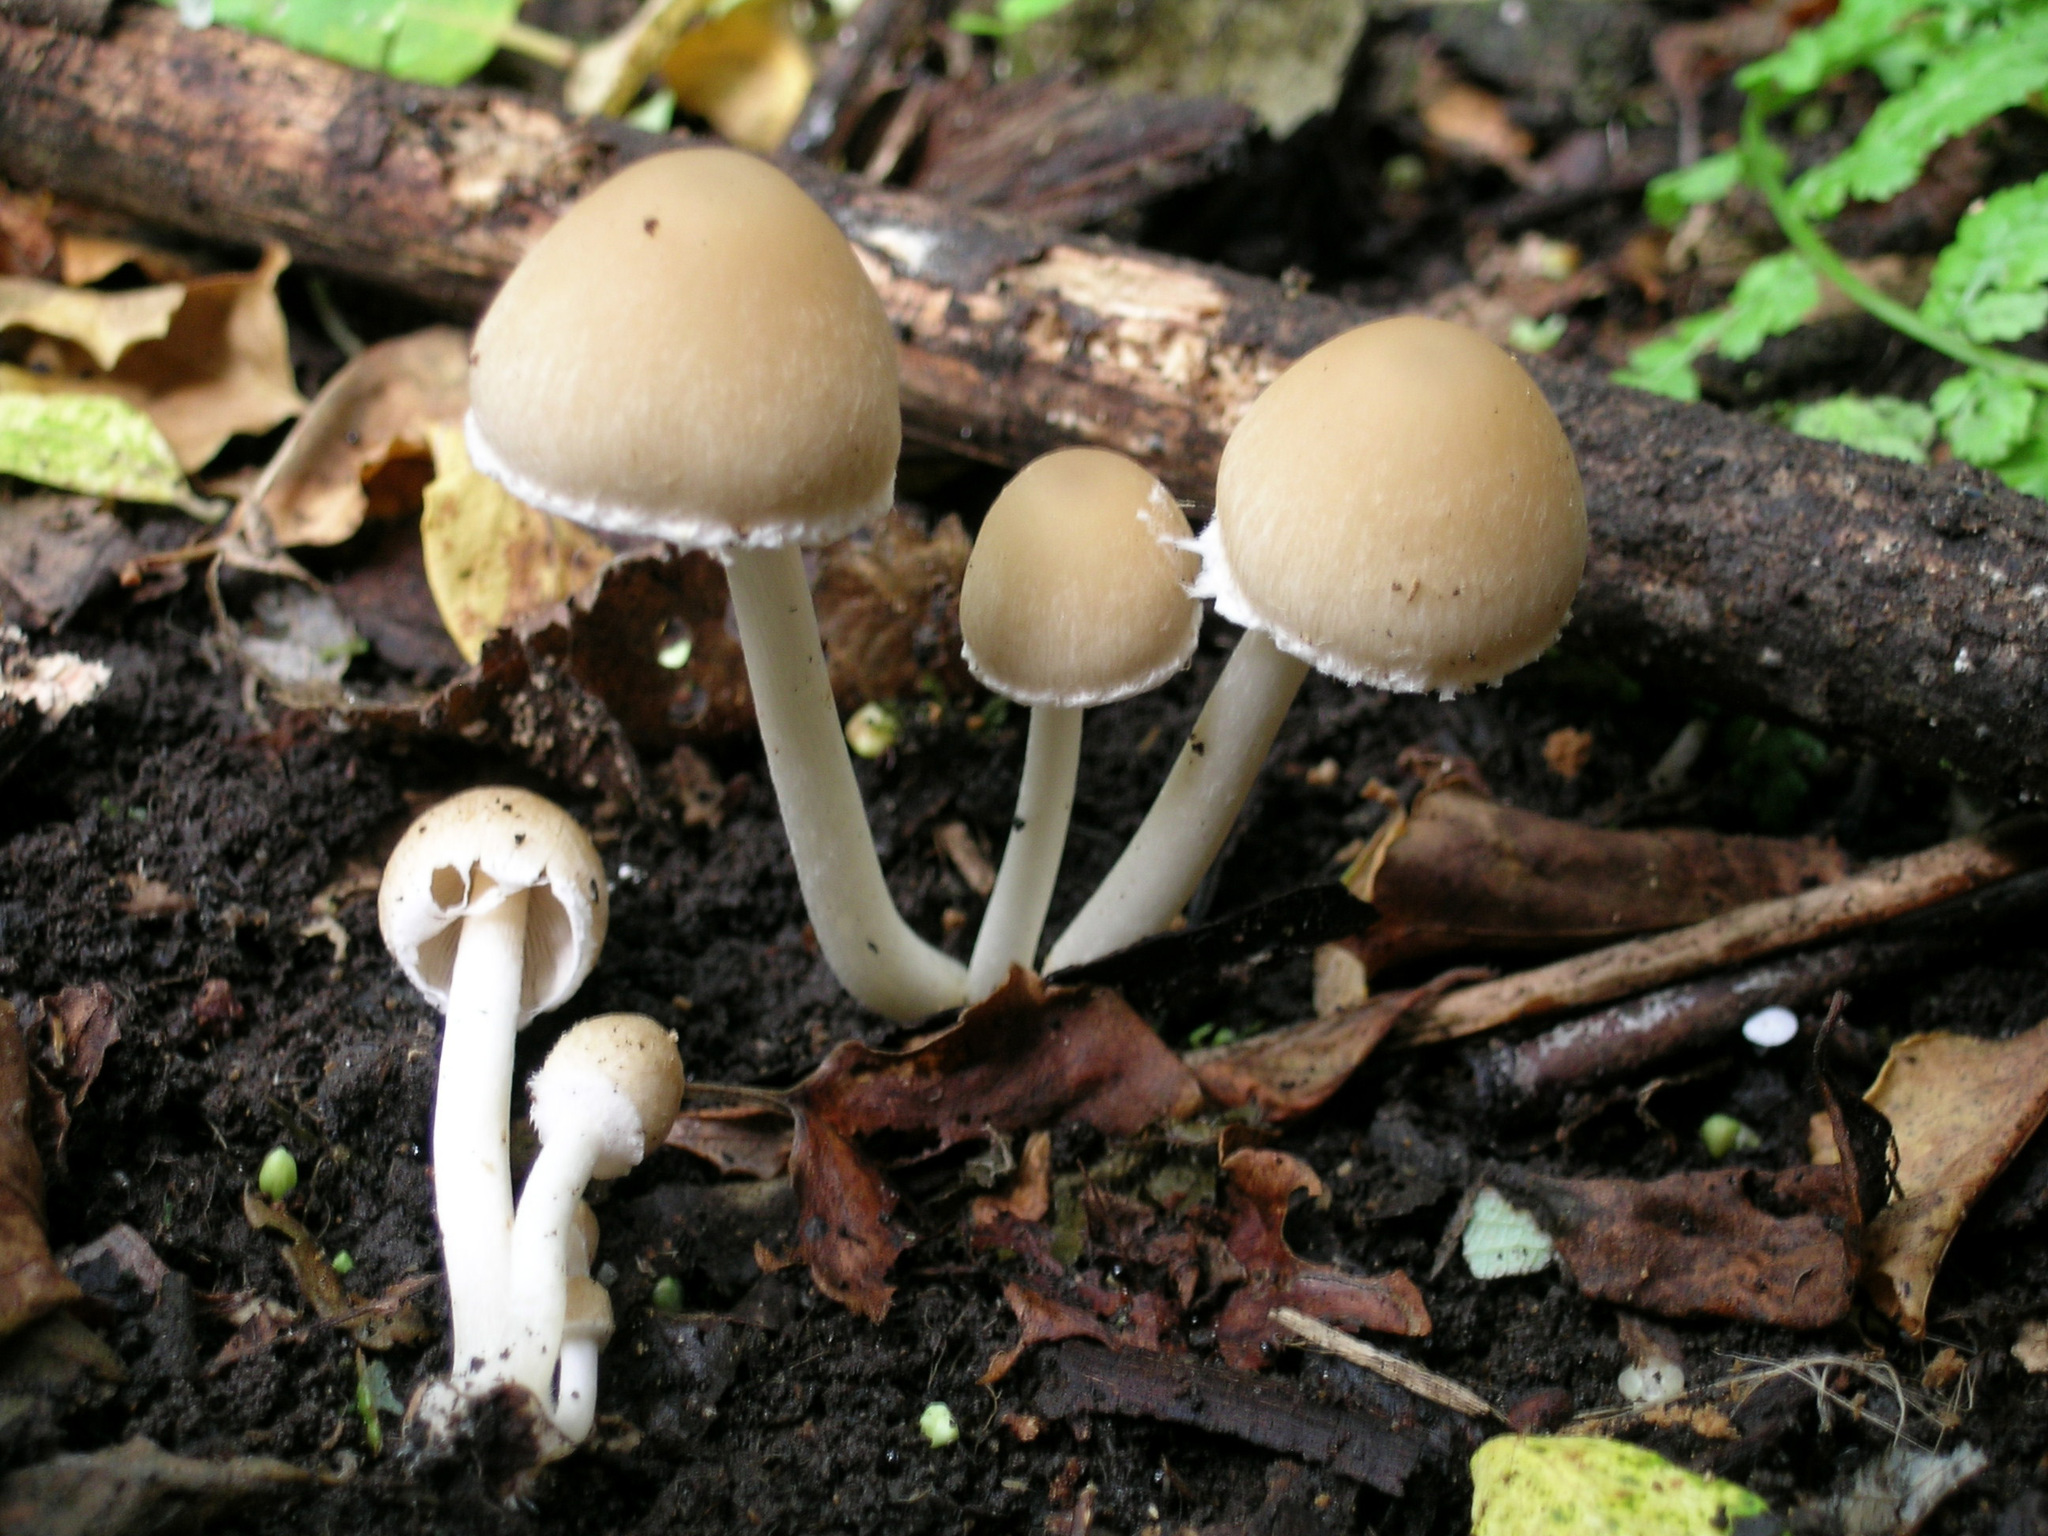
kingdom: Fungi
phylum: Basidiomycota
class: Agaricomycetes
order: Agaricales
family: Psathyrellaceae
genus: Candolleomyces
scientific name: Candolleomyces candolleanus
